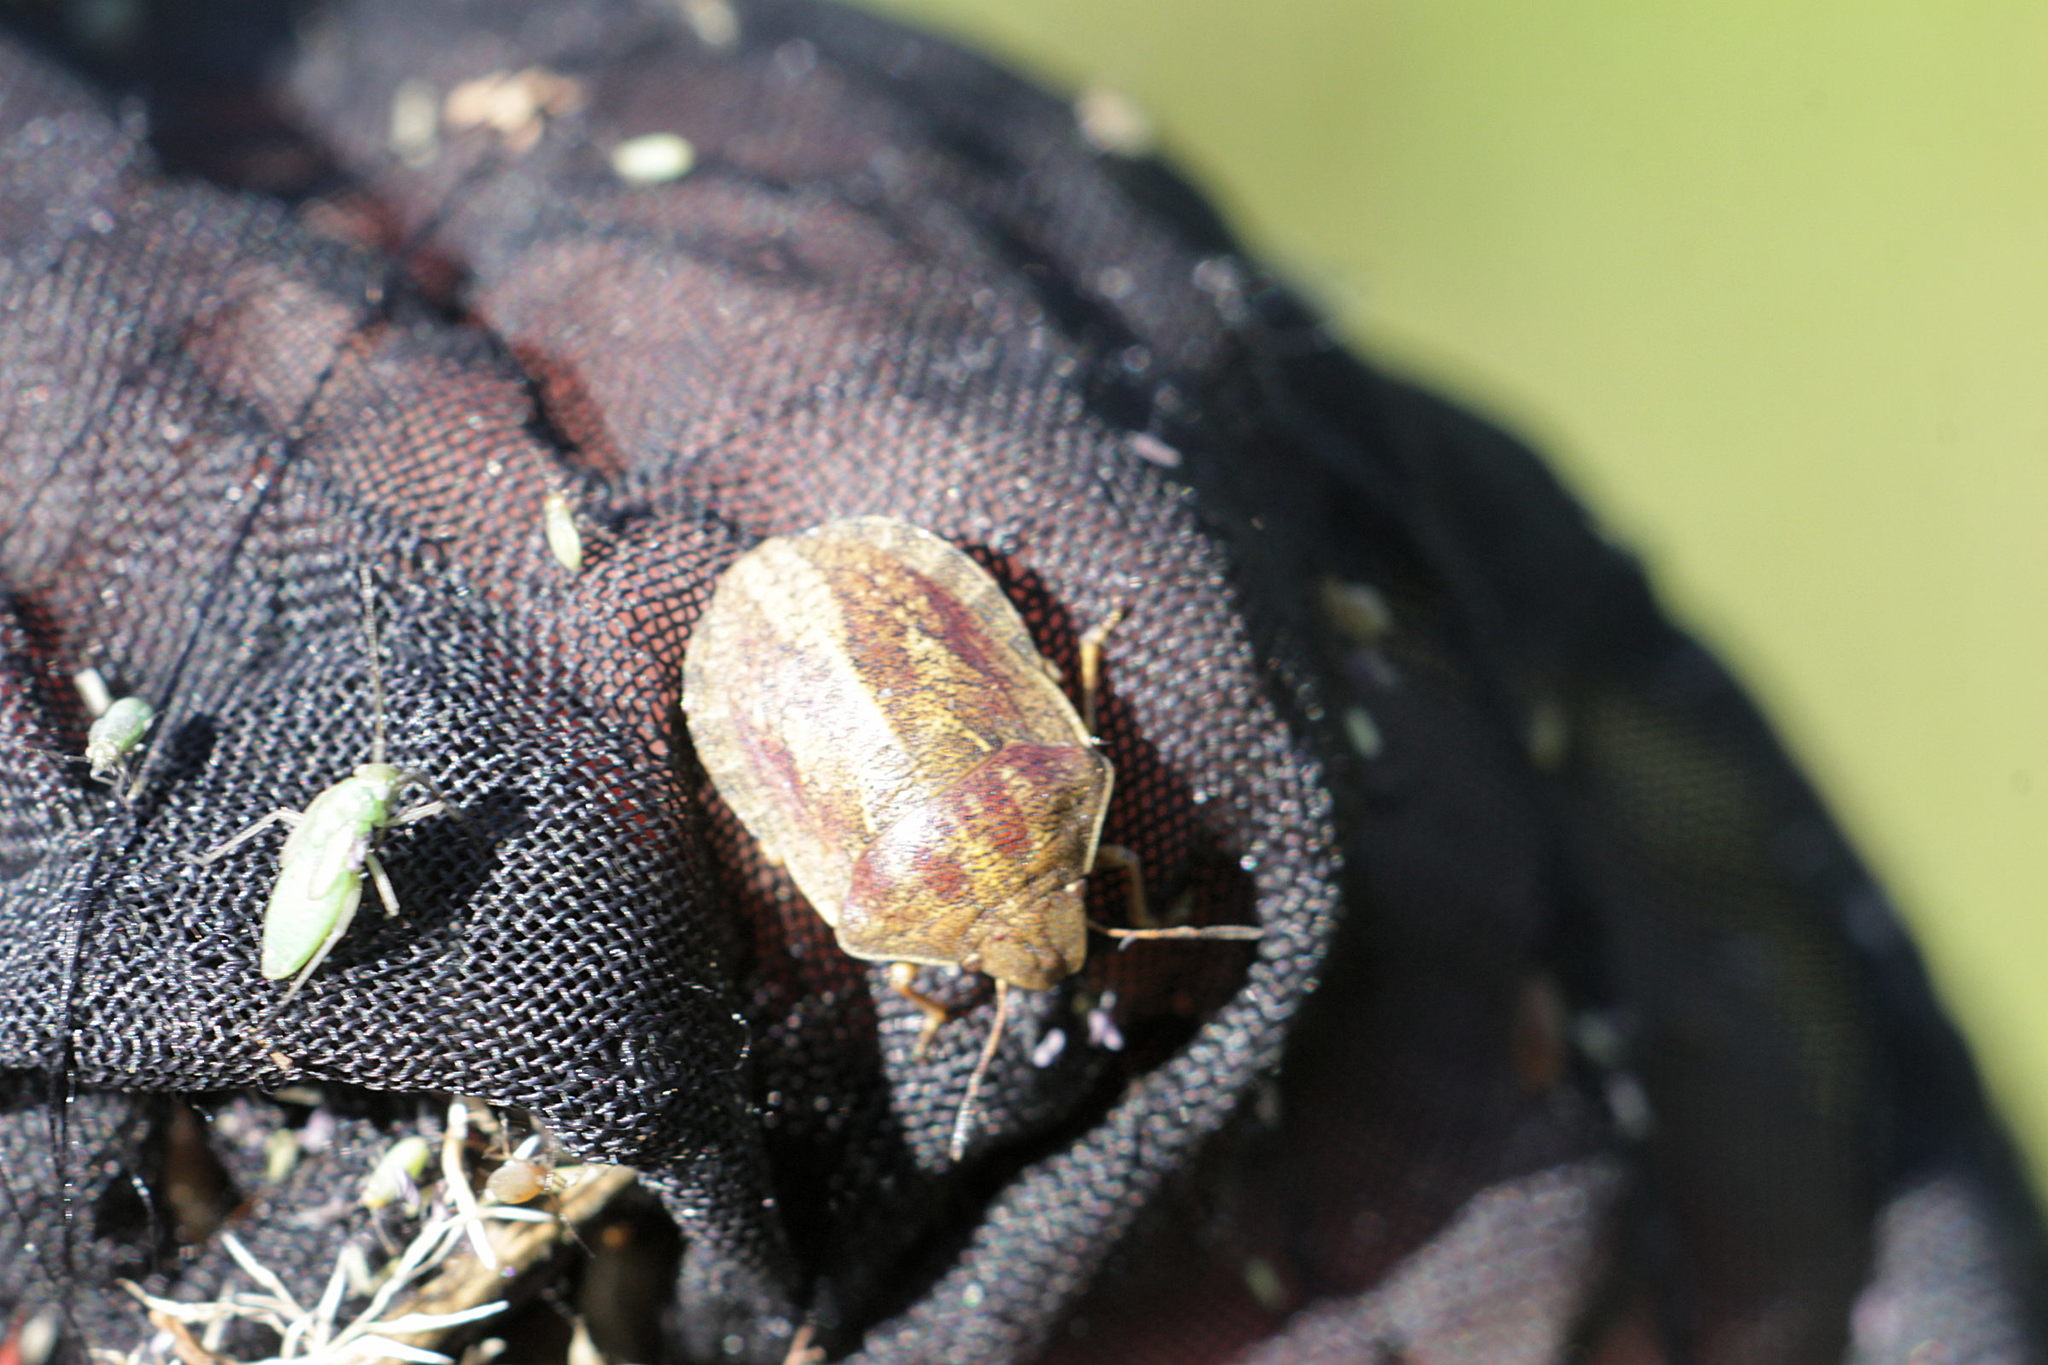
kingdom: Animalia
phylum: Arthropoda
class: Insecta
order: Hemiptera
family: Scutelleridae
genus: Eurygaster
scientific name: Eurygaster testudinaria
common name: Tortoise bug
